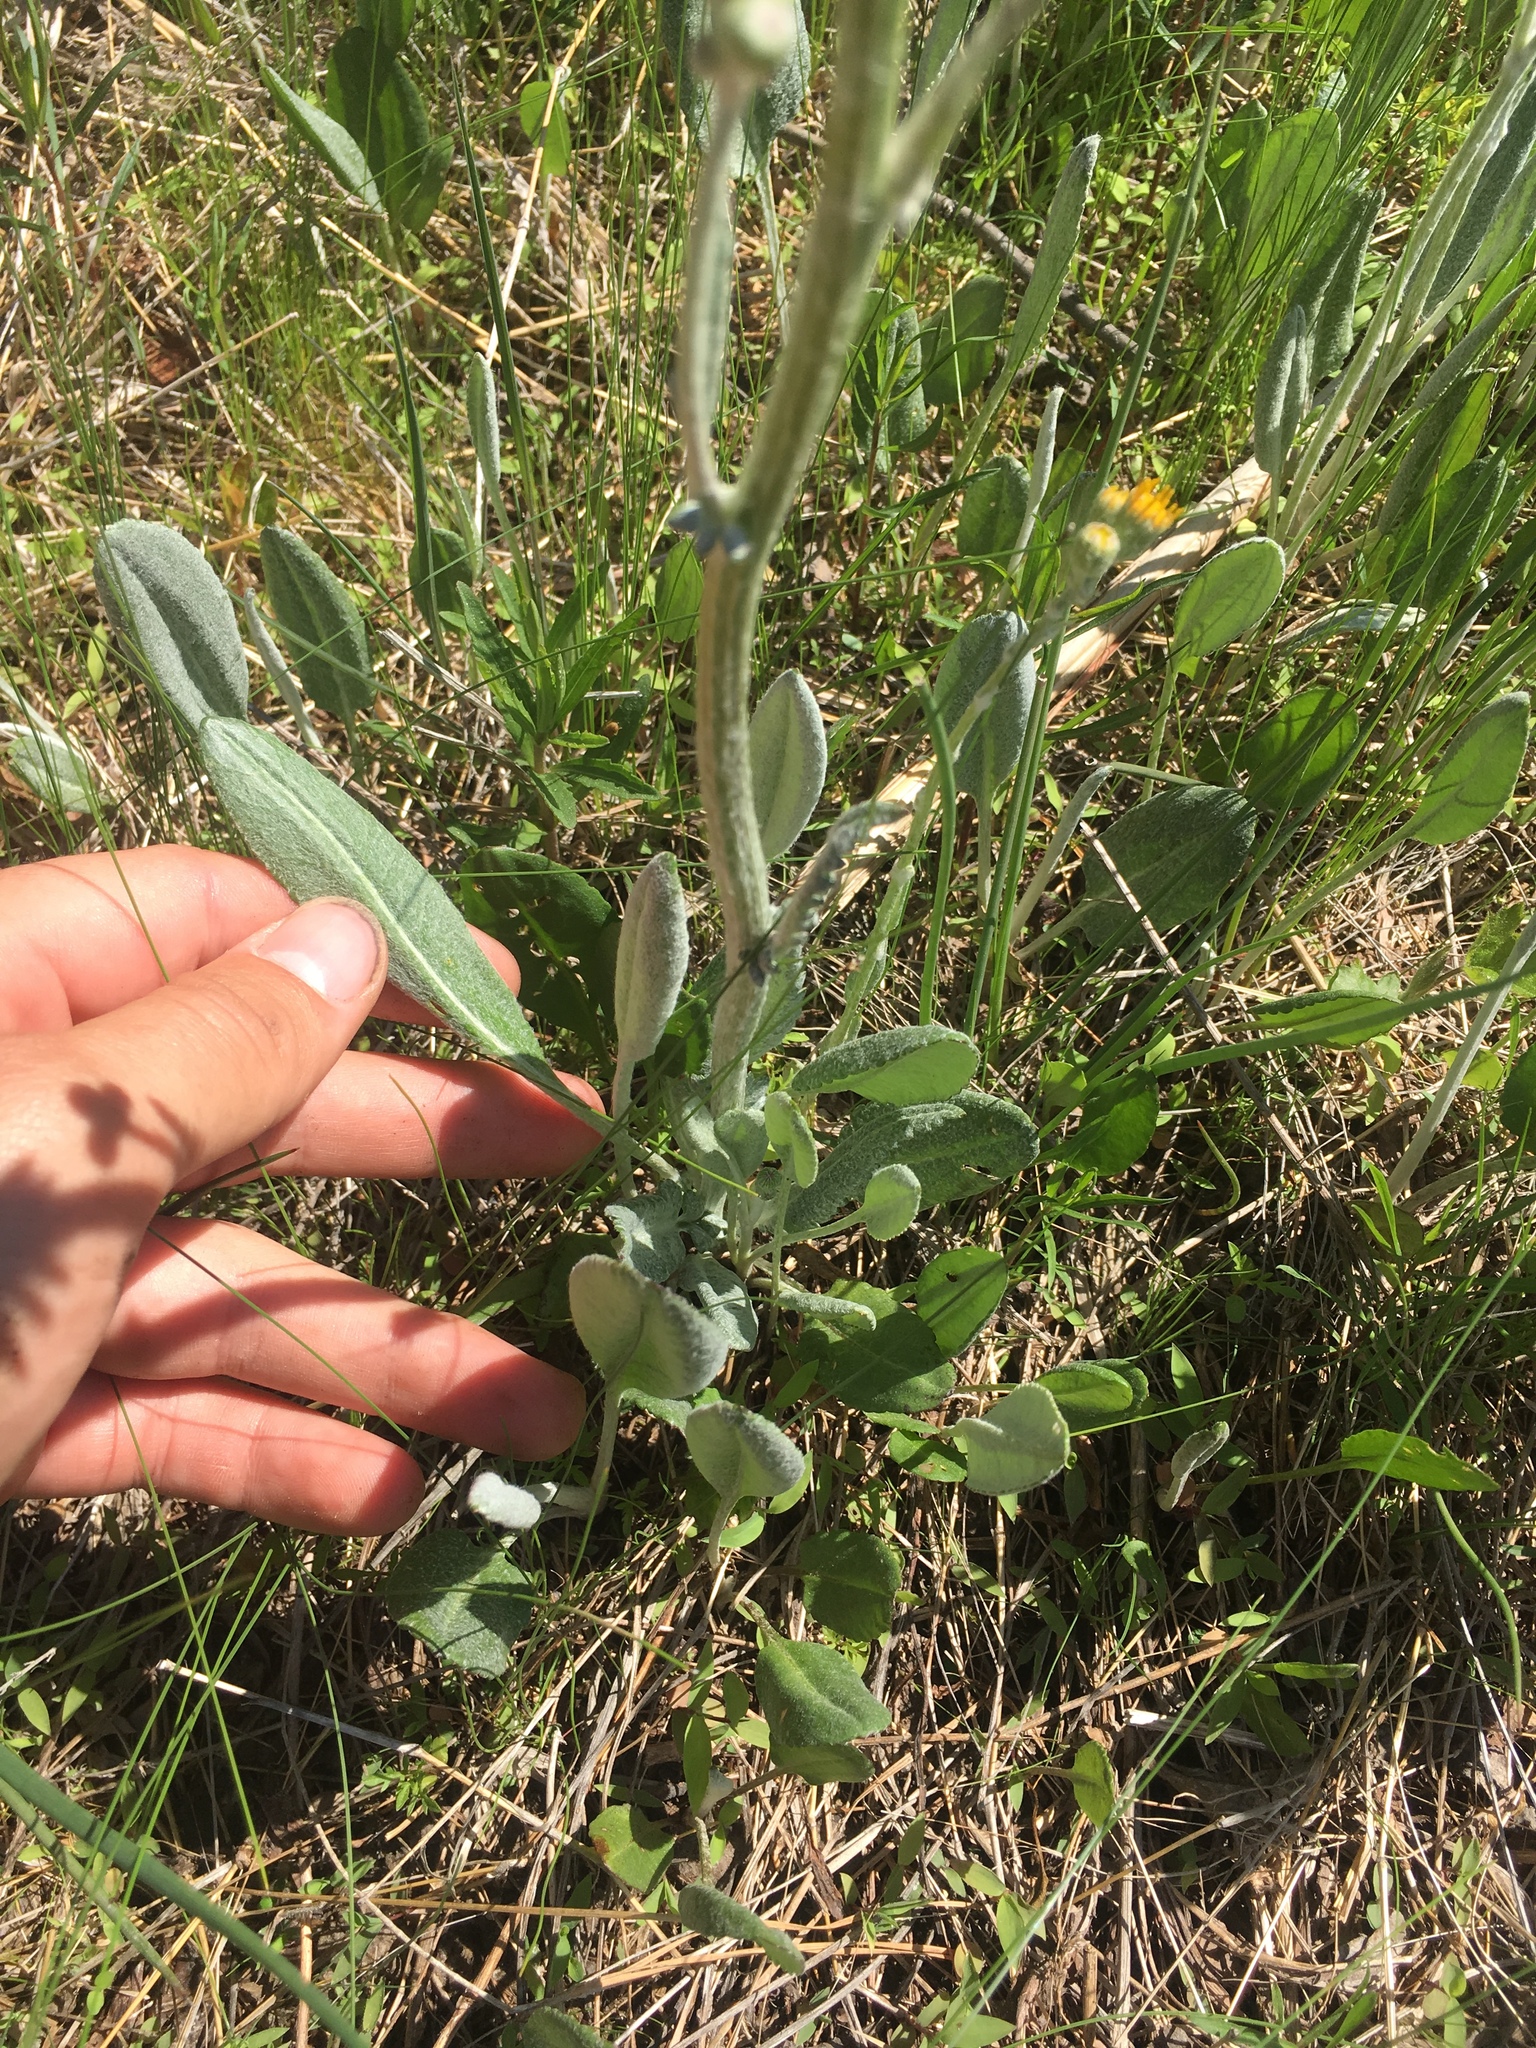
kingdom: Plantae
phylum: Tracheophyta
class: Magnoliopsida
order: Asterales
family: Asteraceae
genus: Packera
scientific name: Packera dubia
